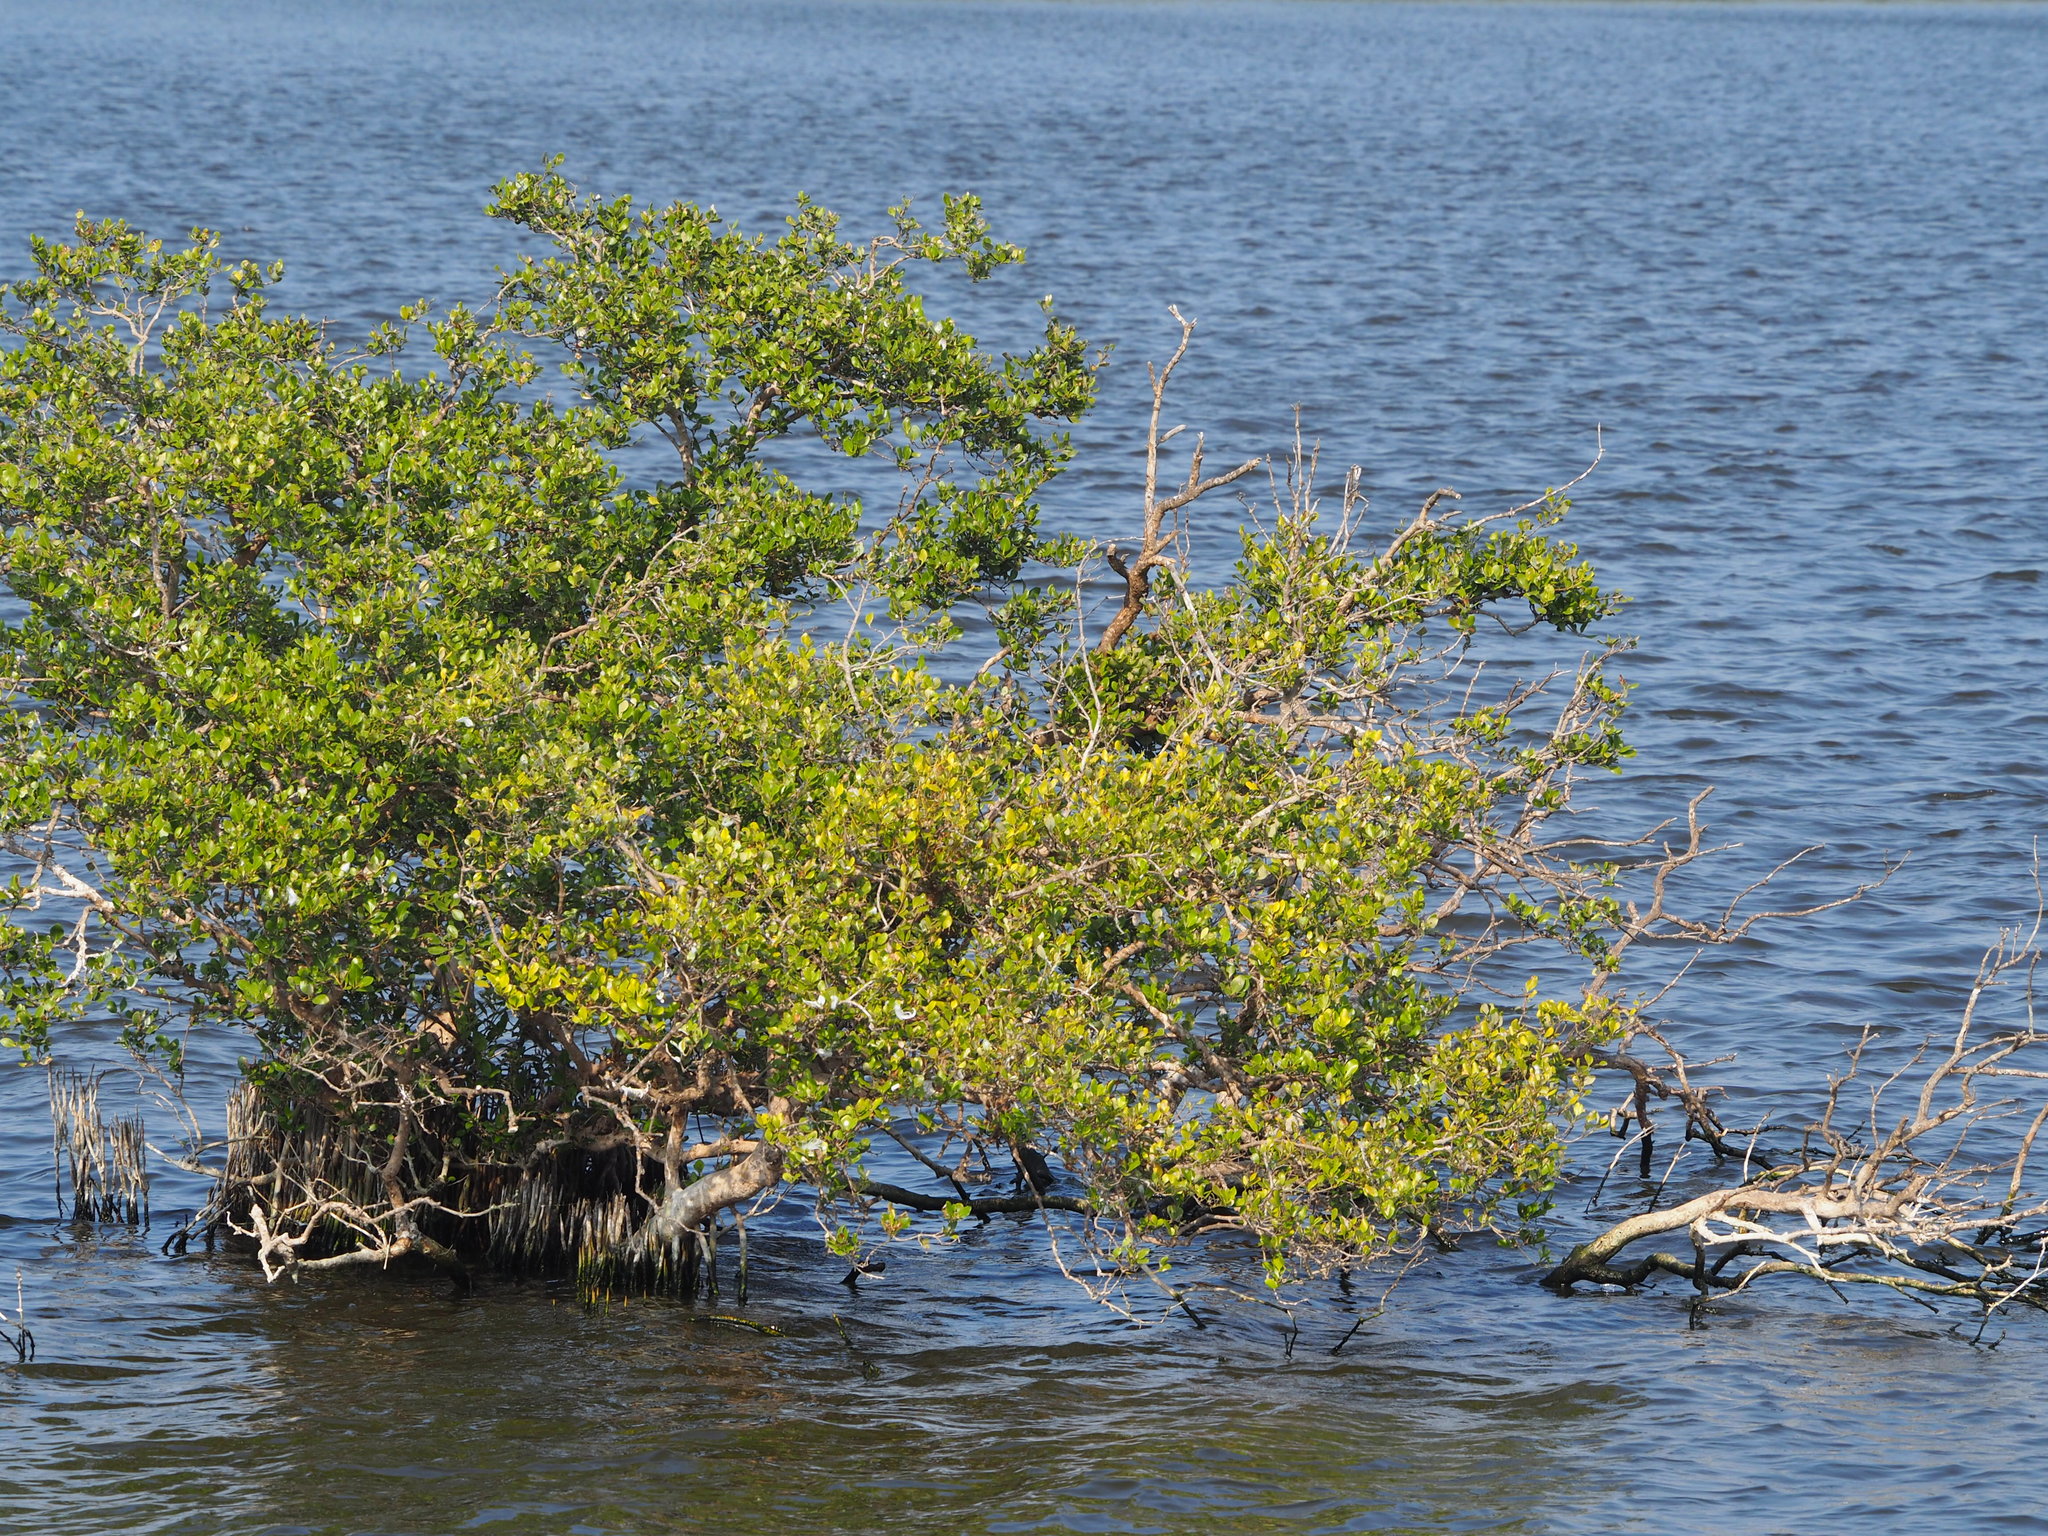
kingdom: Plantae
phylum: Tracheophyta
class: Magnoliopsida
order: Lamiales
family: Acanthaceae
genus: Avicennia
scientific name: Avicennia marina
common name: Gray mangrove
